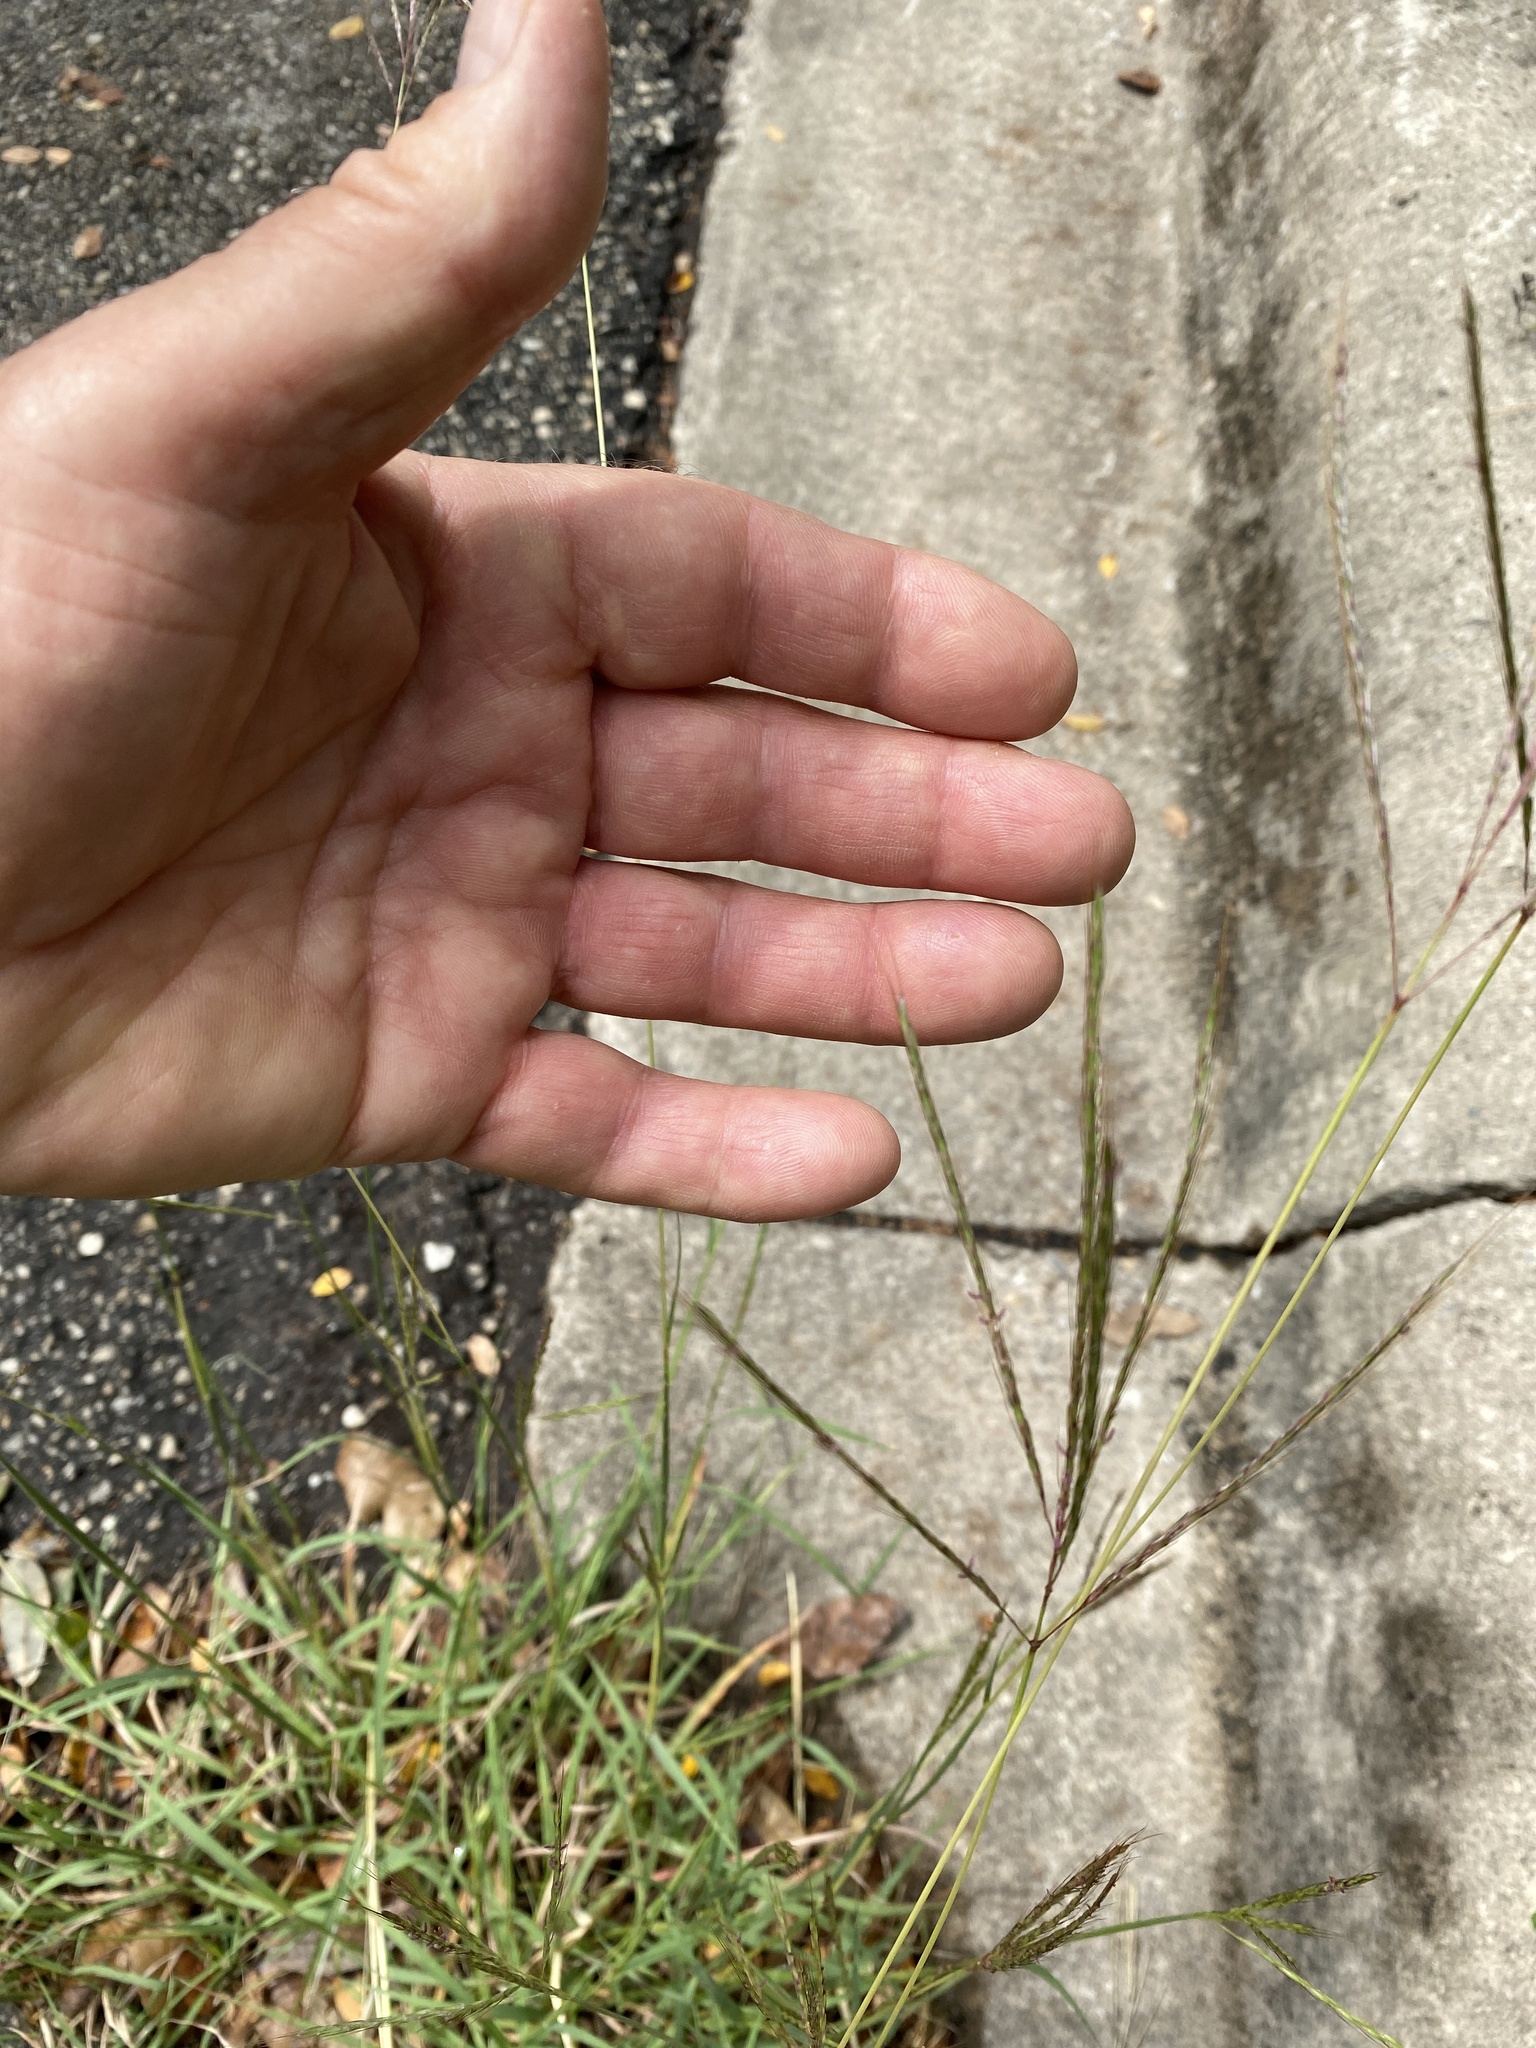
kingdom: Plantae
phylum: Tracheophyta
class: Liliopsida
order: Poales
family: Poaceae
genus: Bothriochloa
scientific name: Bothriochloa ischaemum
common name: Yellow bluestem
